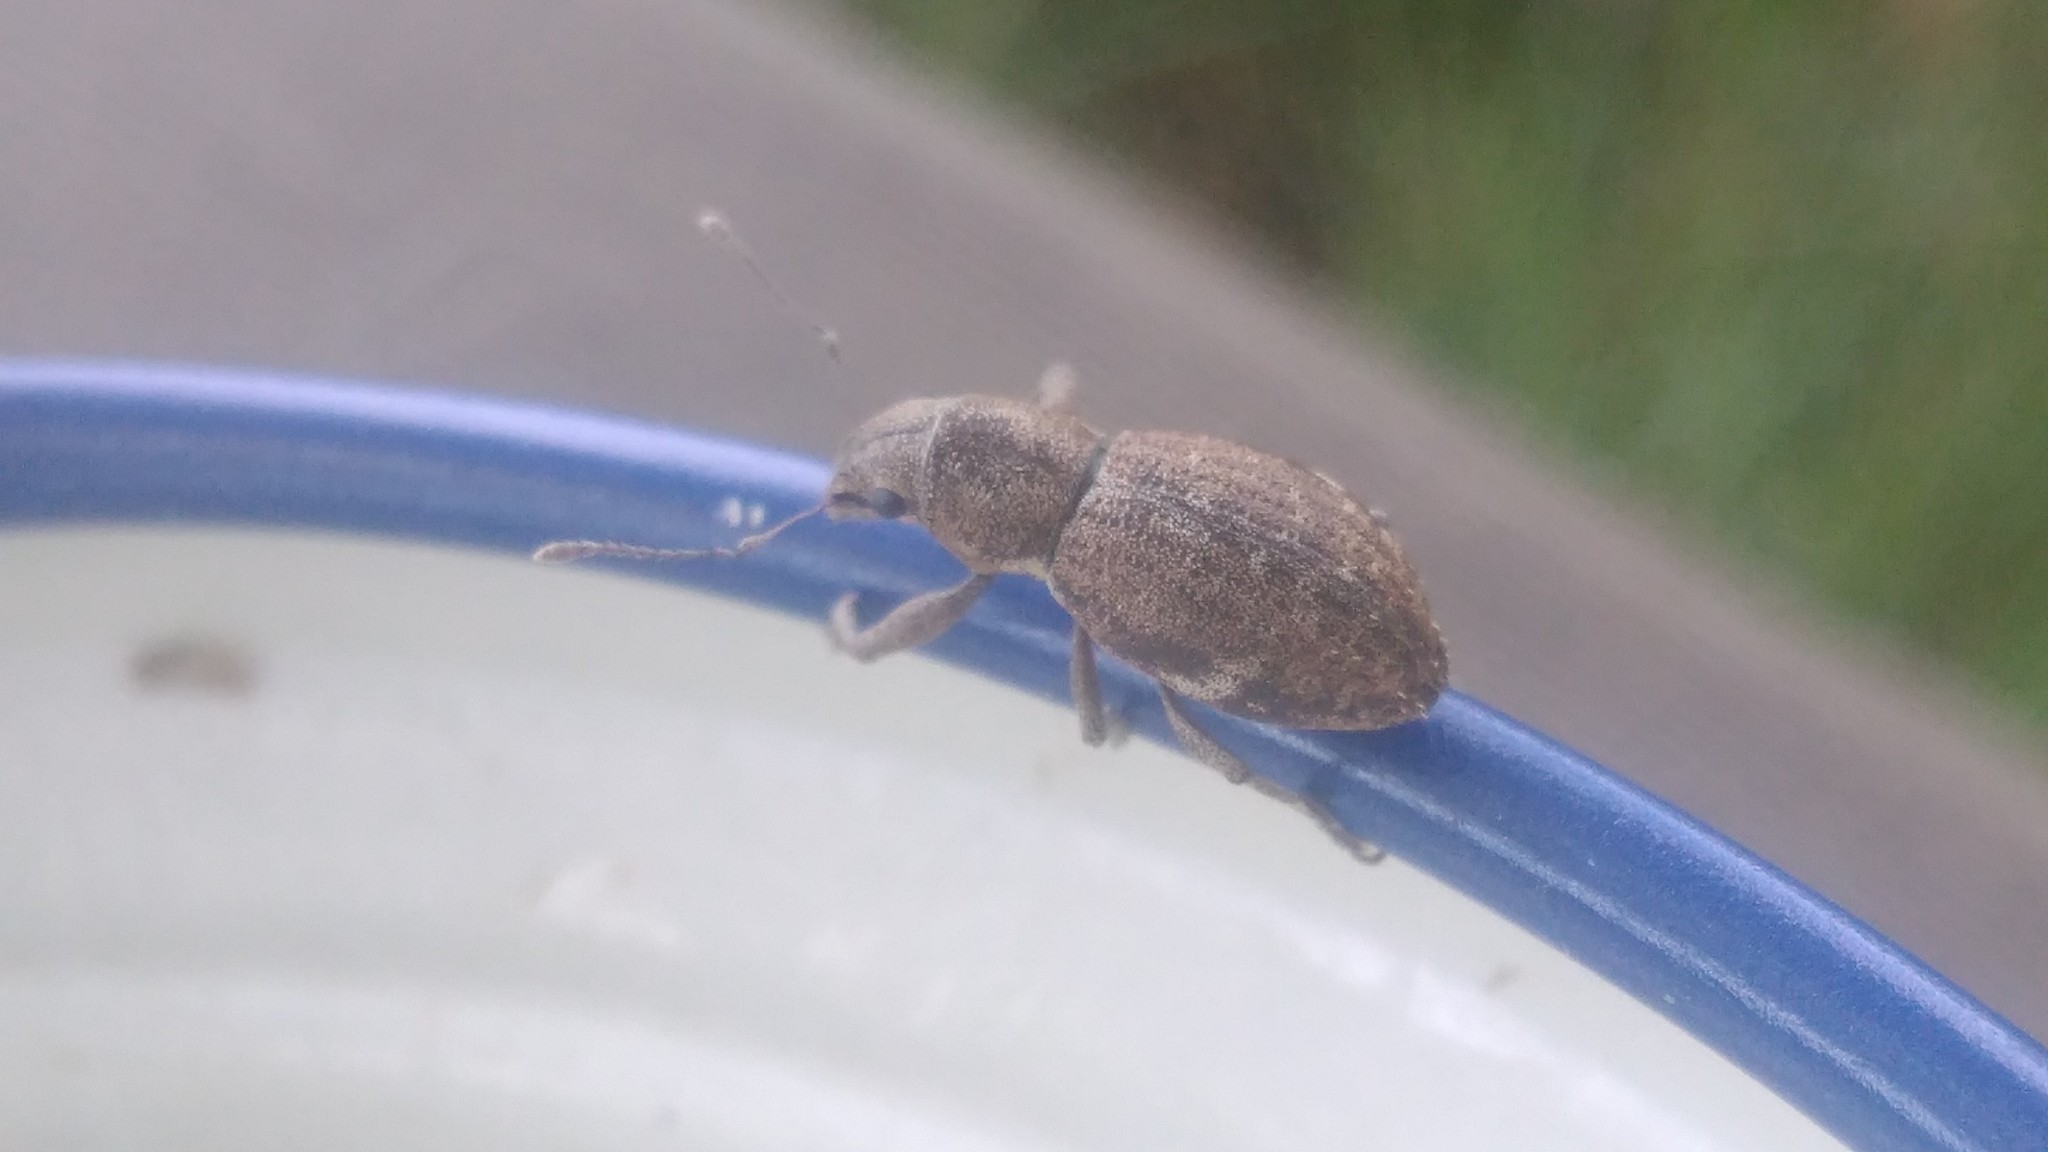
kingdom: Animalia
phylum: Arthropoda
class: Insecta
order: Coleoptera
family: Curculionidae
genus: Naupactus
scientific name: Naupactus cervinus
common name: Fuller rose beetle
